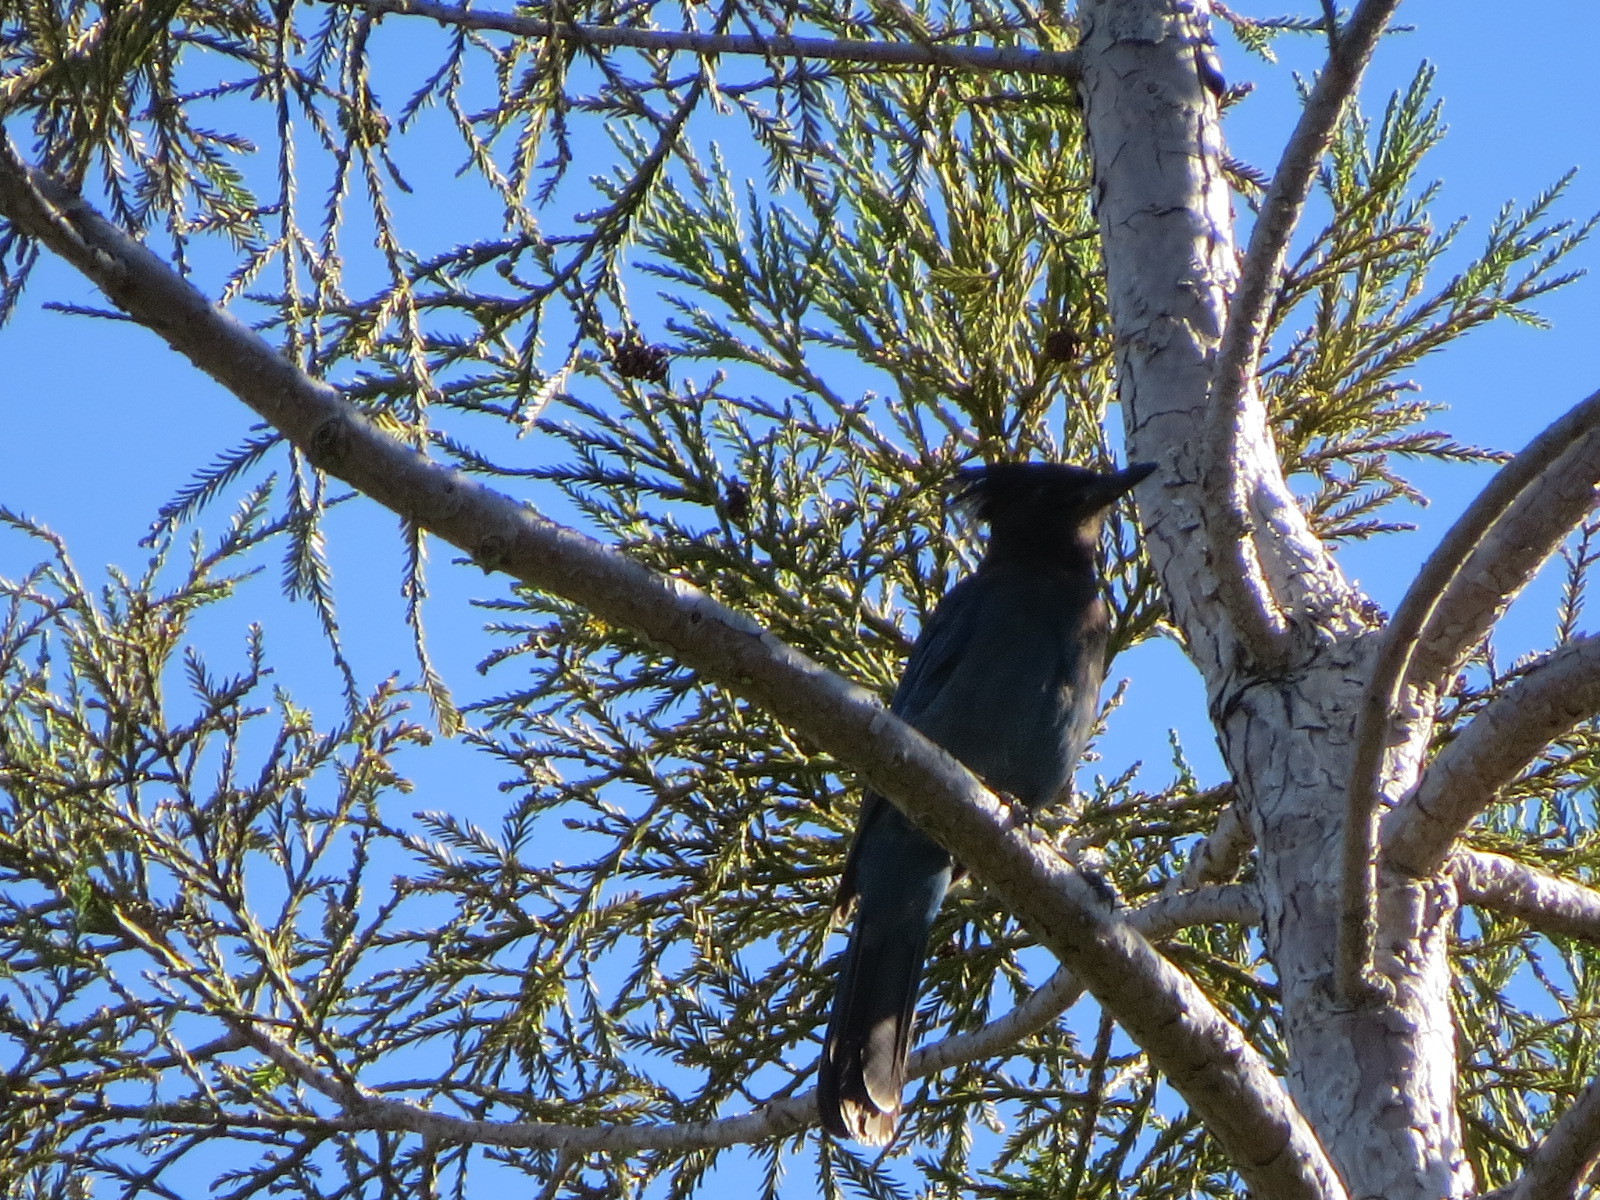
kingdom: Animalia
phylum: Chordata
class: Aves
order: Passeriformes
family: Corvidae
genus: Cyanocitta
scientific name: Cyanocitta stelleri
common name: Steller's jay
